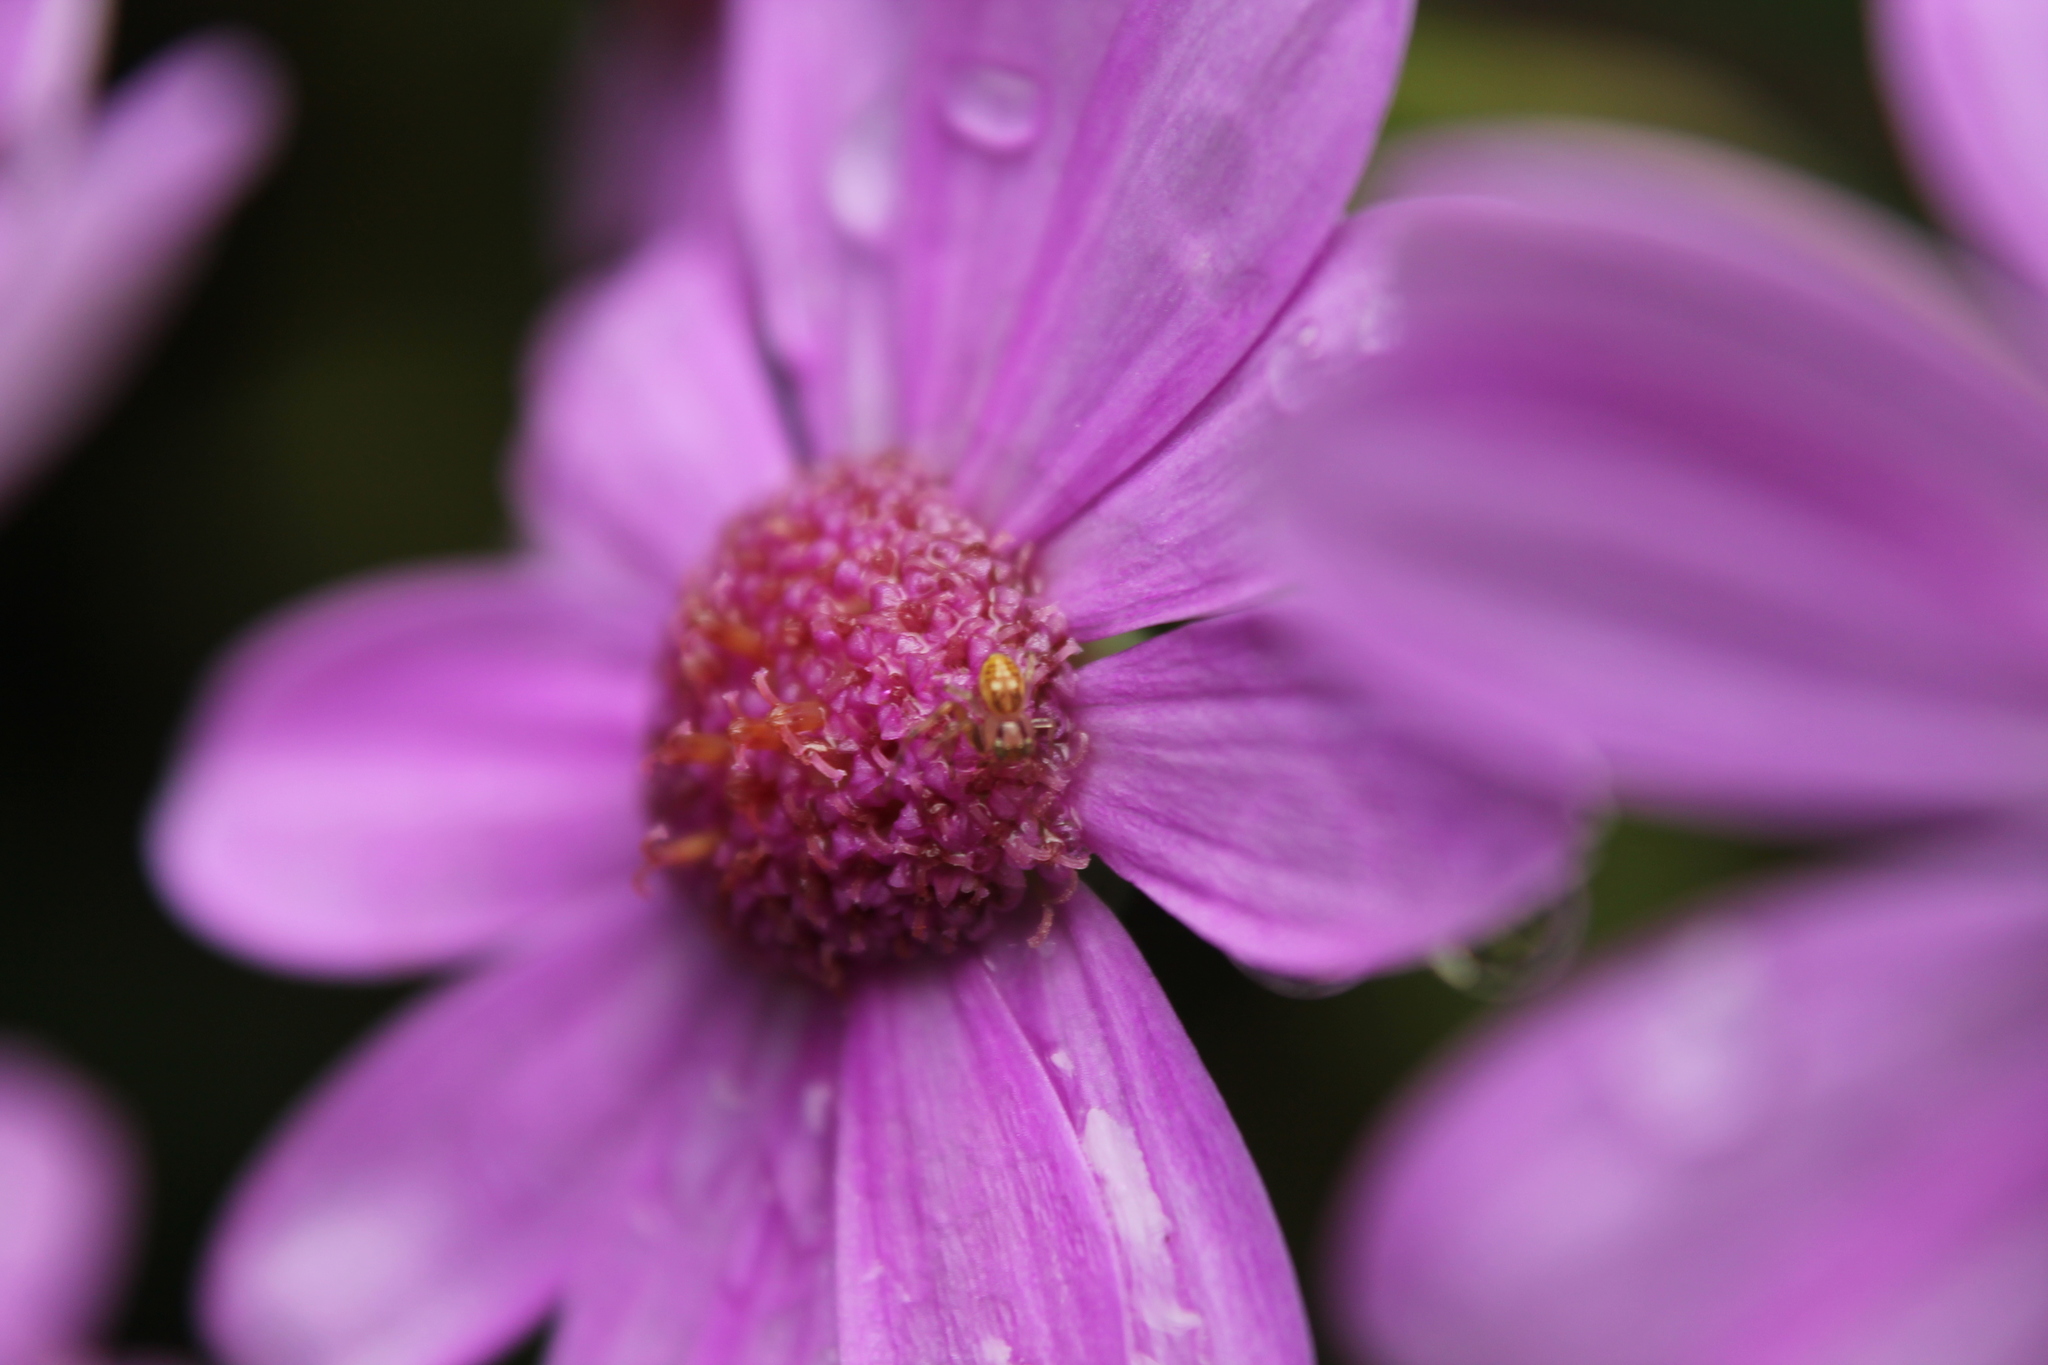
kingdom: Animalia
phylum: Arthropoda
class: Arachnida
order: Araneae
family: Thomisidae
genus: Diaea
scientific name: Diaea ambara
